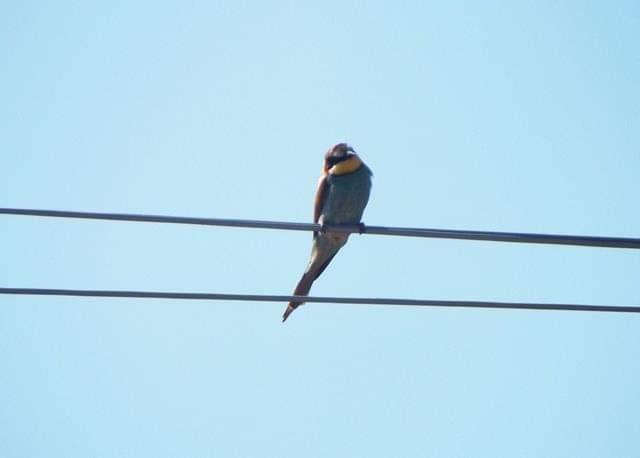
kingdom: Animalia
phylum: Chordata
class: Aves
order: Coraciiformes
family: Meropidae
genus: Merops
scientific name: Merops apiaster
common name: European bee-eater
